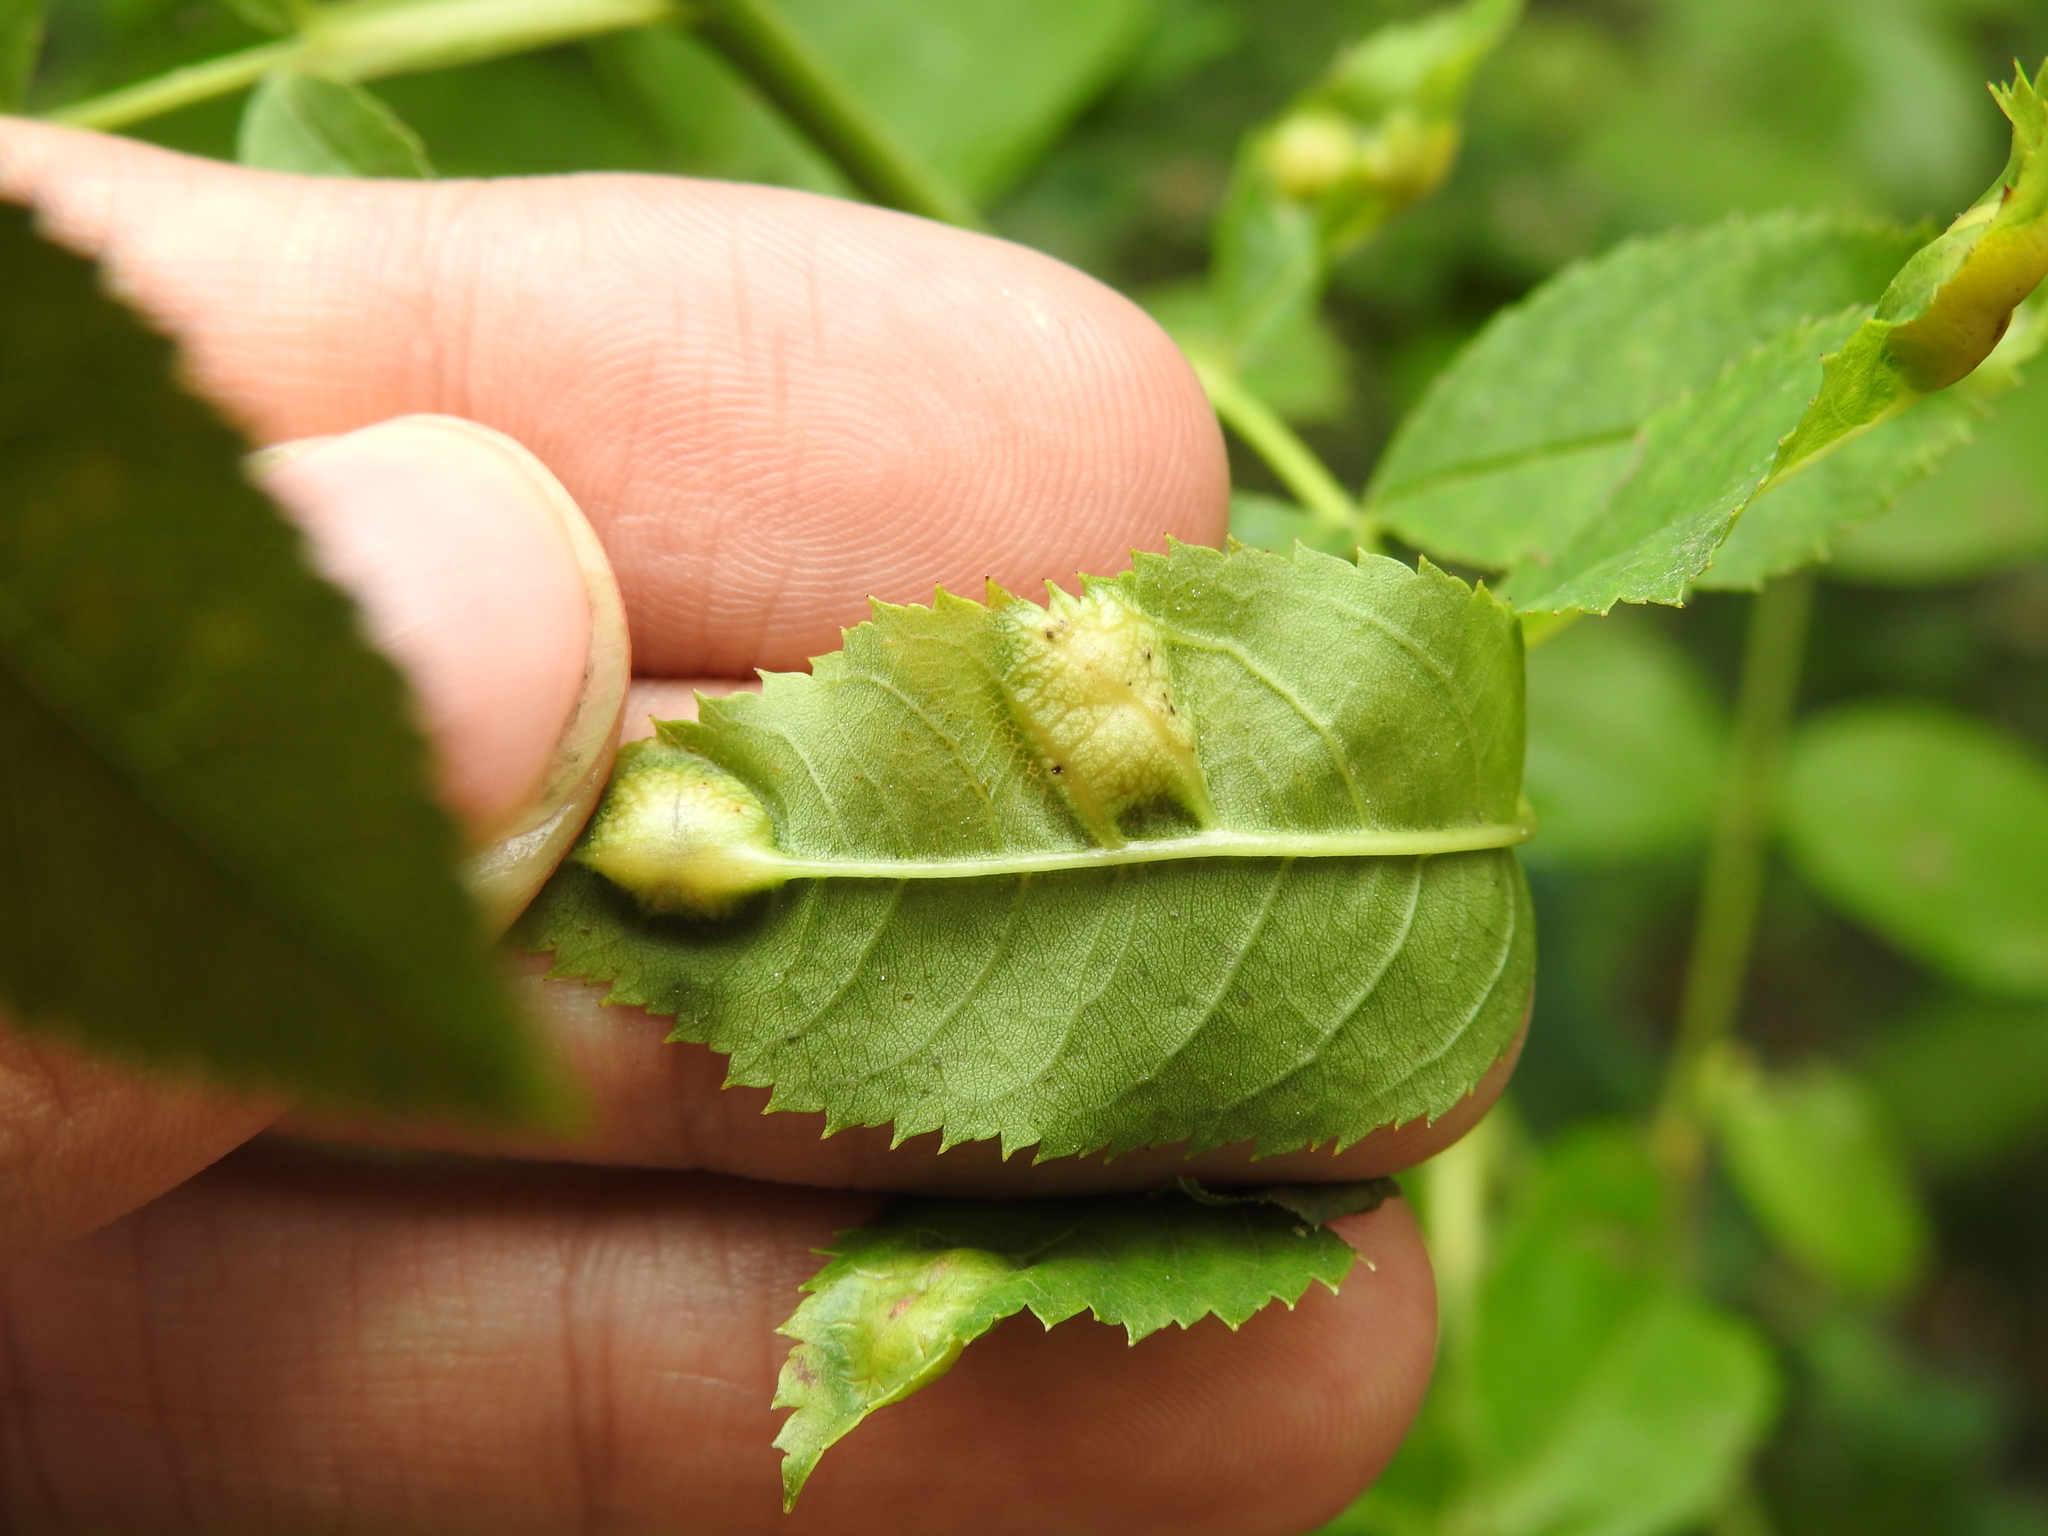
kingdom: Animalia
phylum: Arthropoda
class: Insecta
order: Hymenoptera
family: Cynipidae
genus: Diplolepis
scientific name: Diplolepis spinosissimae
